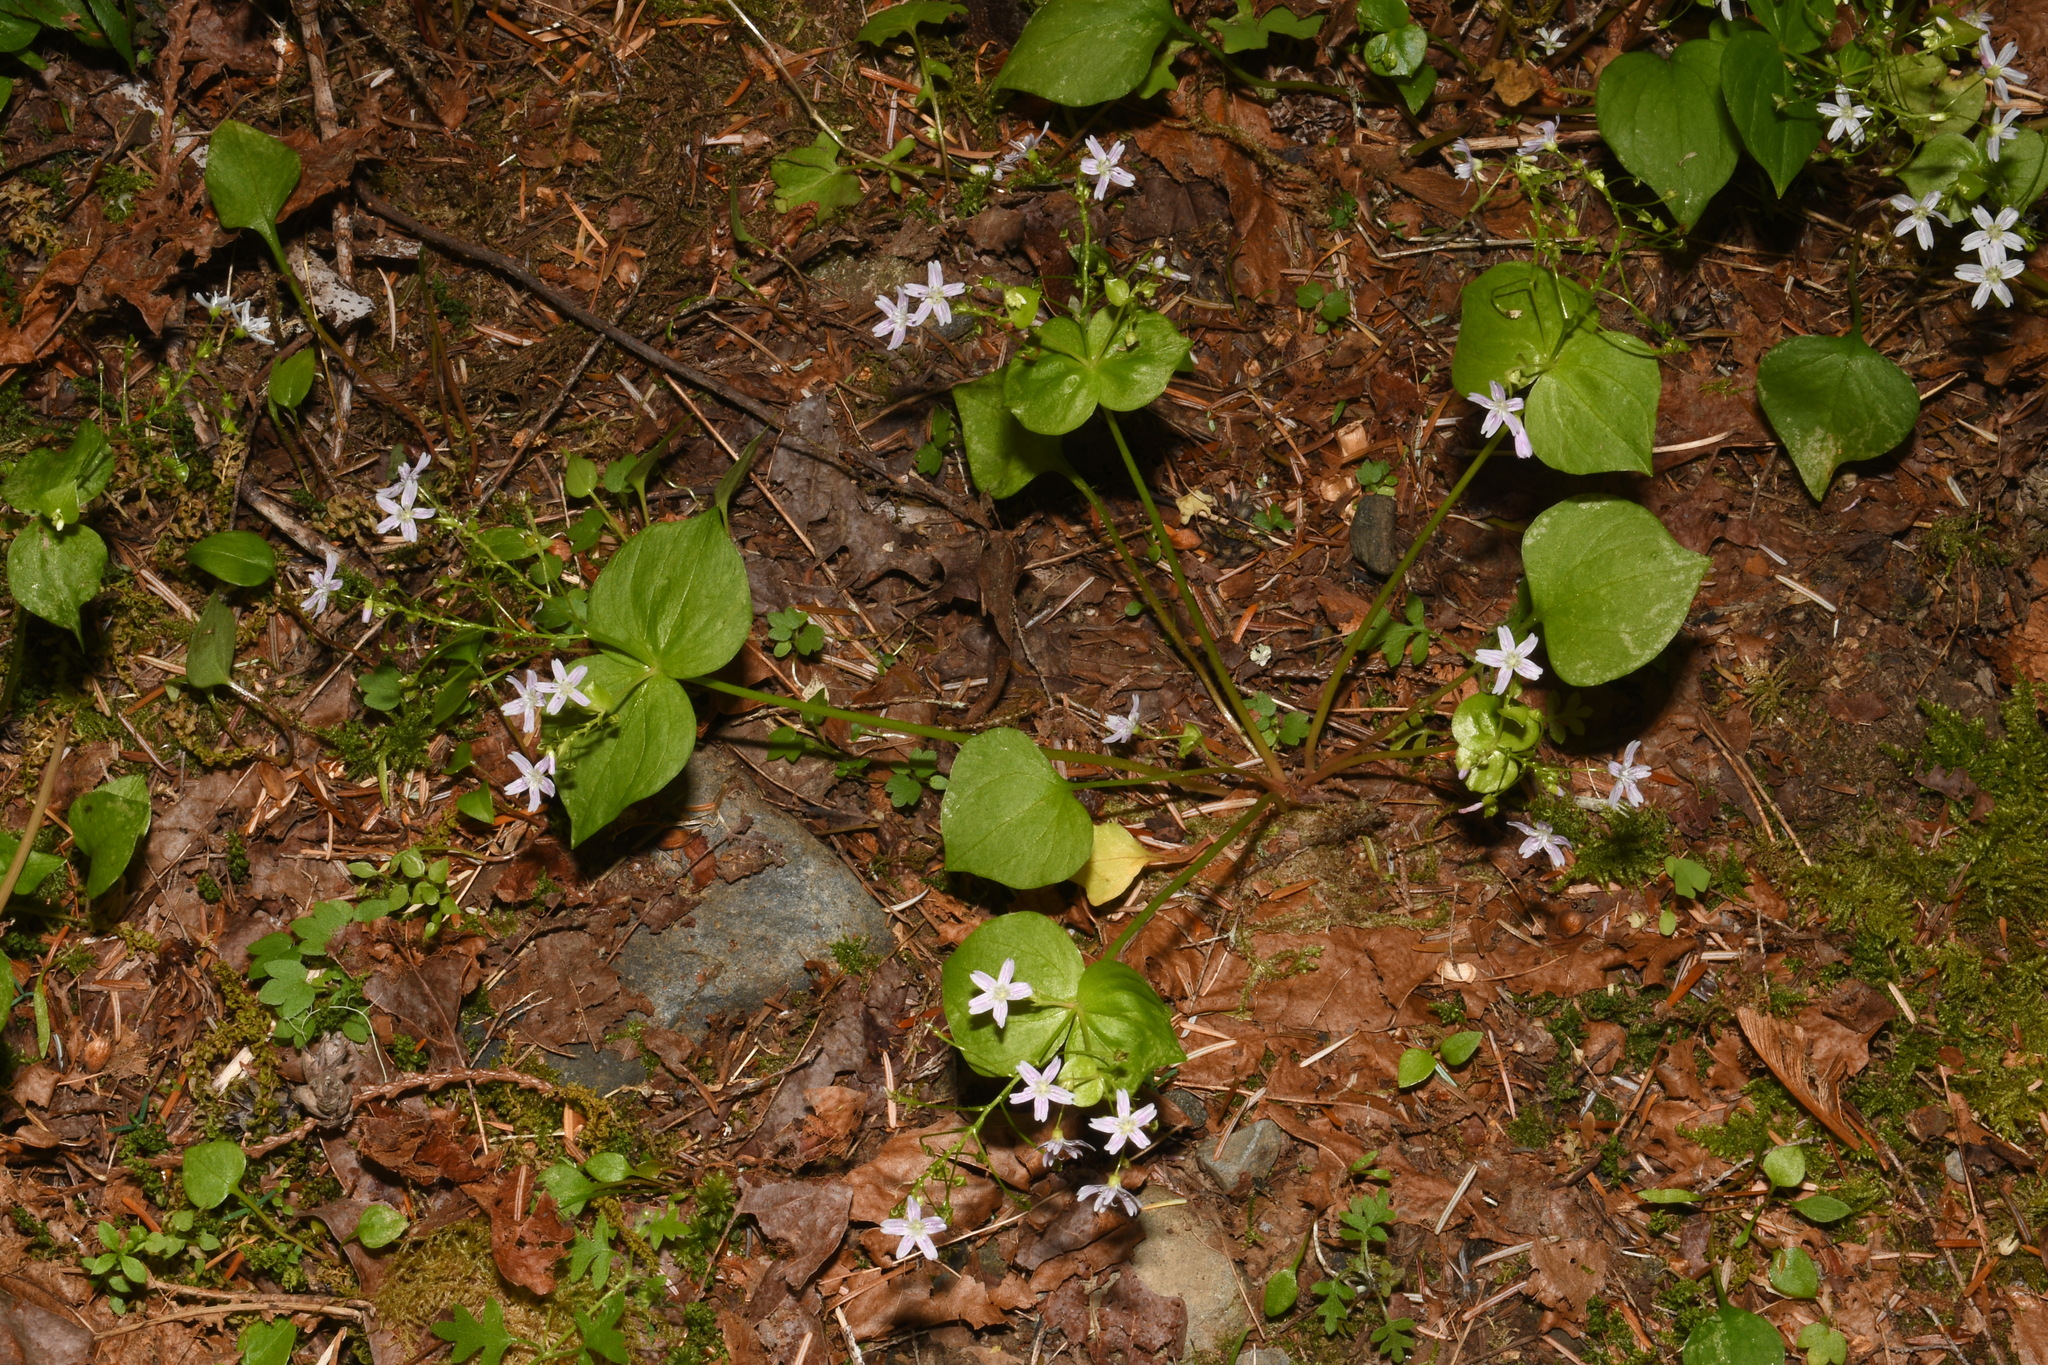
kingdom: Plantae
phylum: Tracheophyta
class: Magnoliopsida
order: Caryophyllales
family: Montiaceae
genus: Claytonia
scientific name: Claytonia sibirica
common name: Pink purslane
